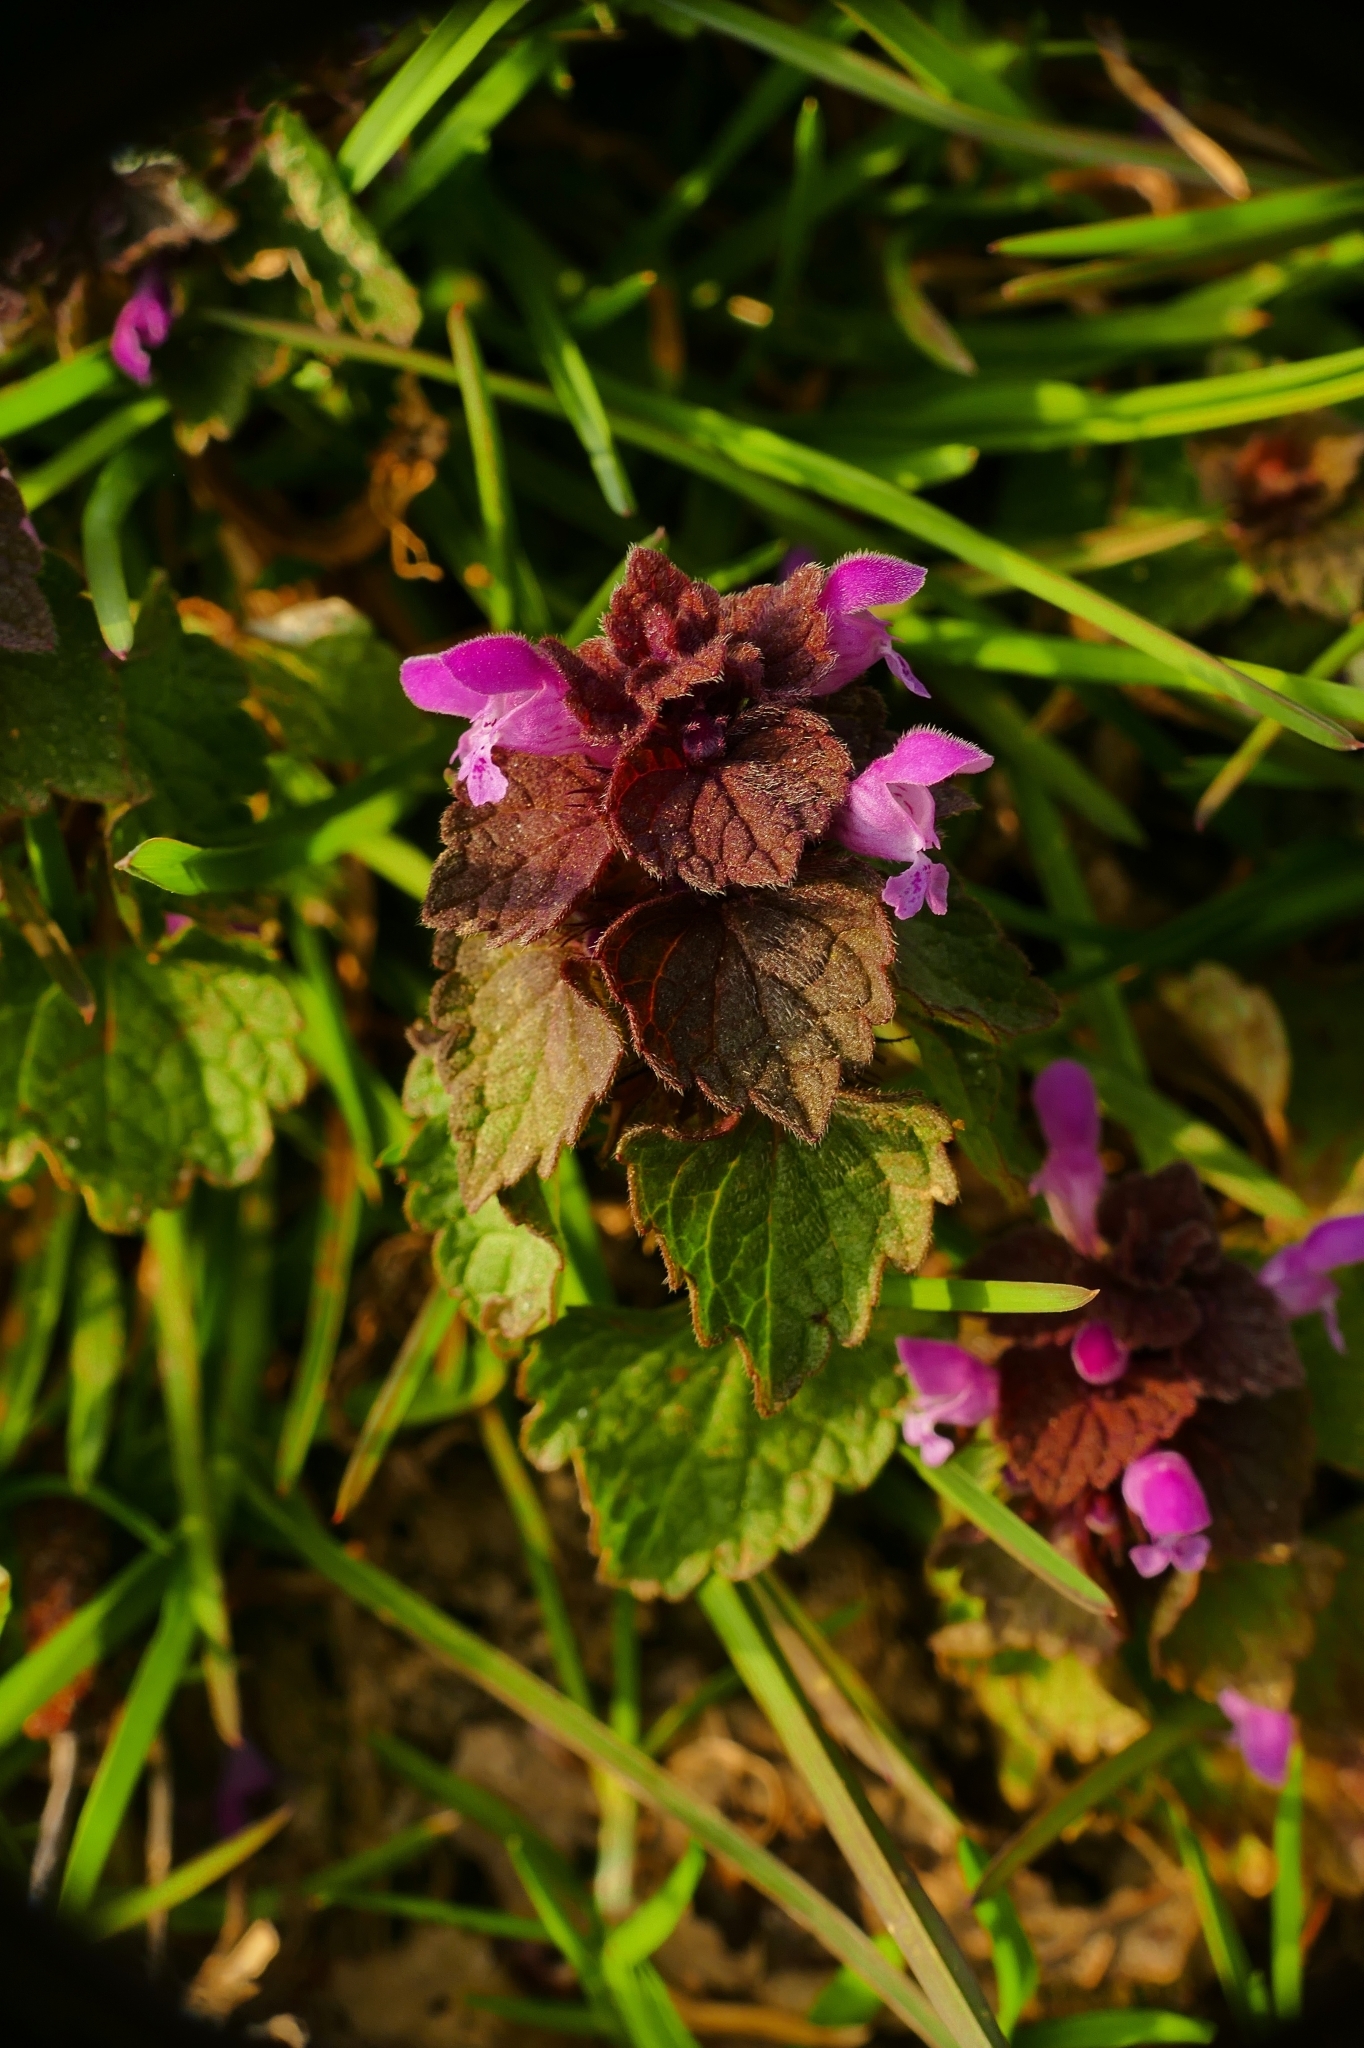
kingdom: Plantae
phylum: Tracheophyta
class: Magnoliopsida
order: Lamiales
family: Lamiaceae
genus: Lamium
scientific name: Lamium purpureum
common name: Red dead-nettle
